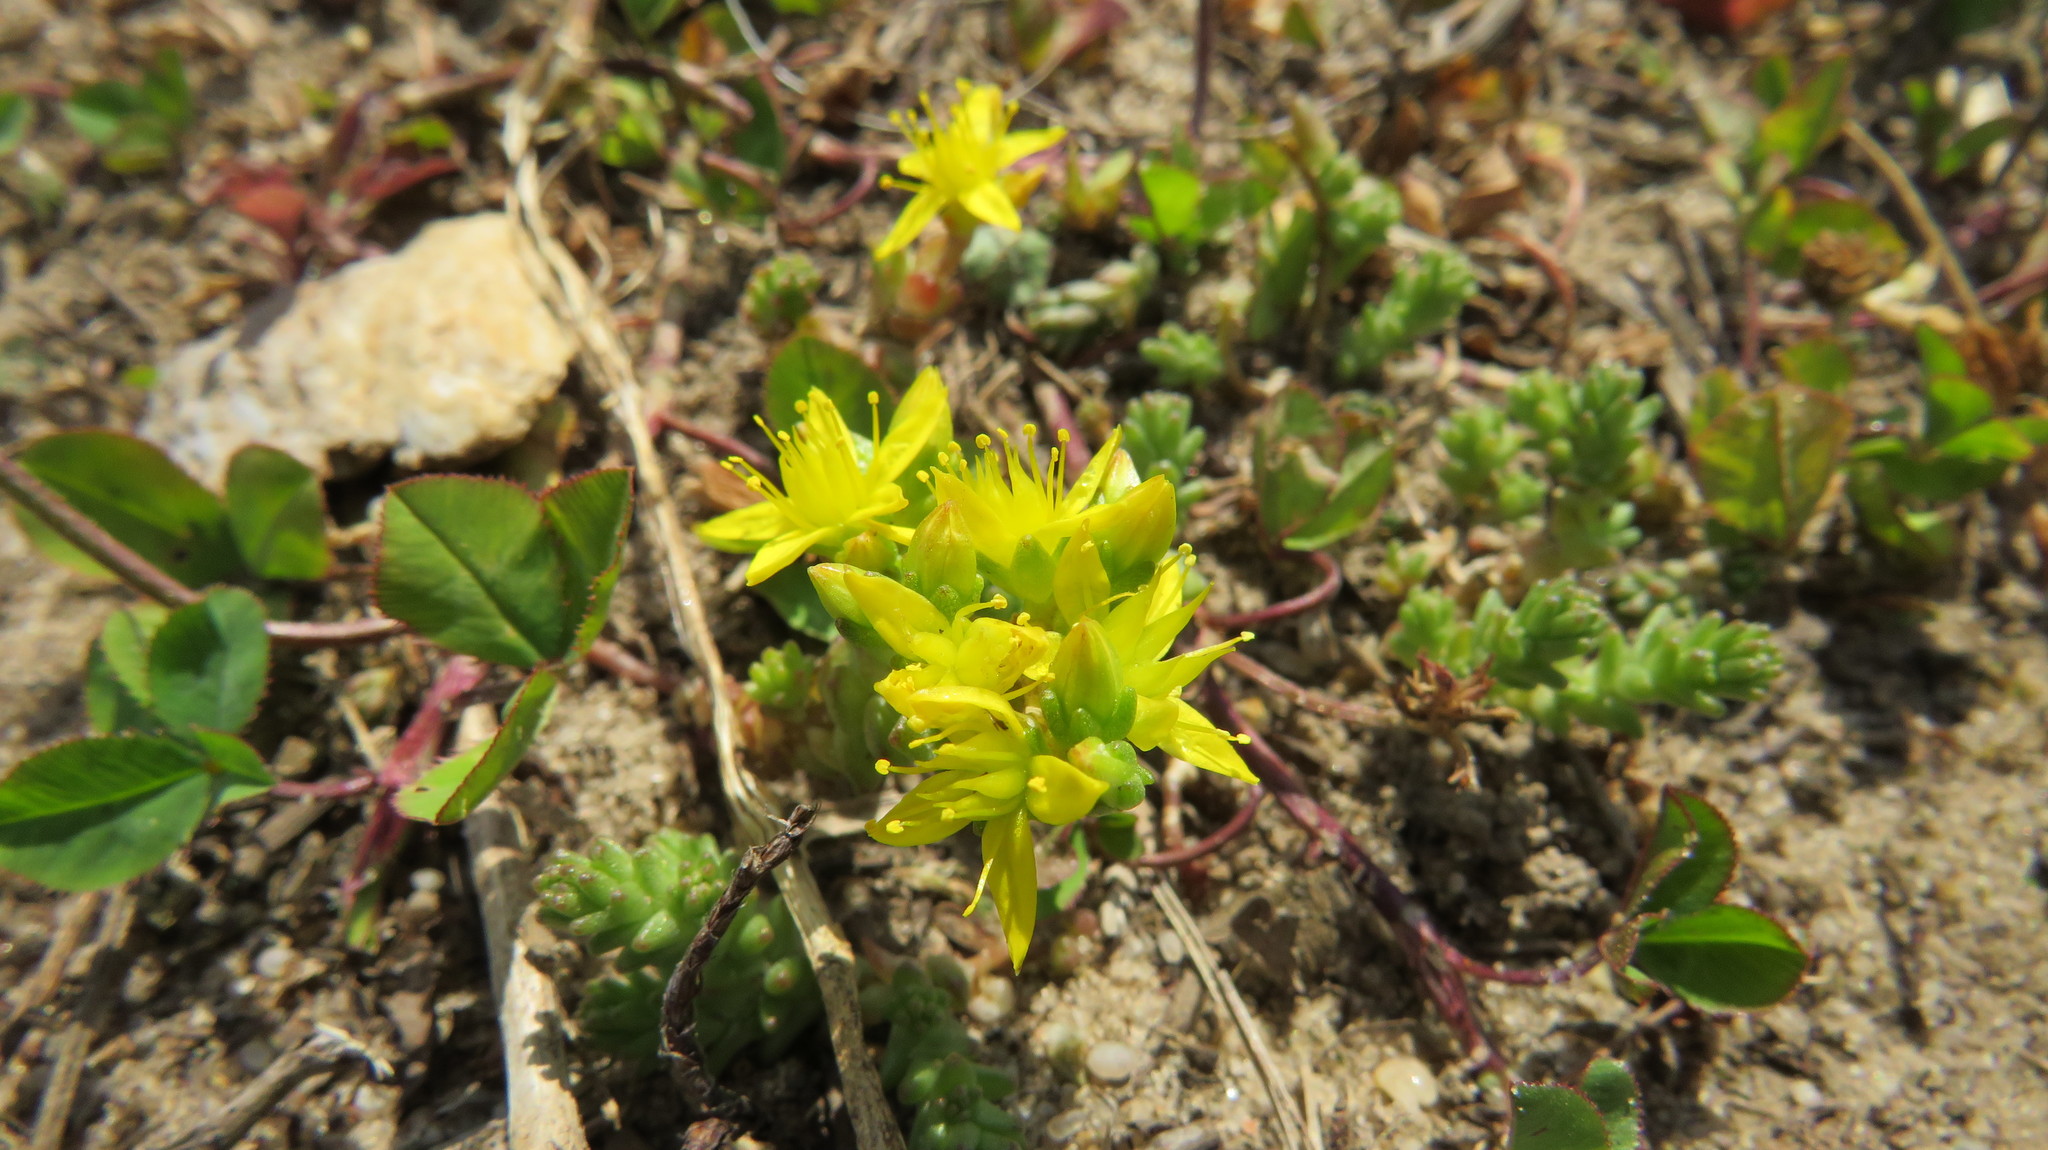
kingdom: Plantae
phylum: Tracheophyta
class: Magnoliopsida
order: Saxifragales
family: Crassulaceae
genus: Sedum
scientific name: Sedum acre
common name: Biting stonecrop
